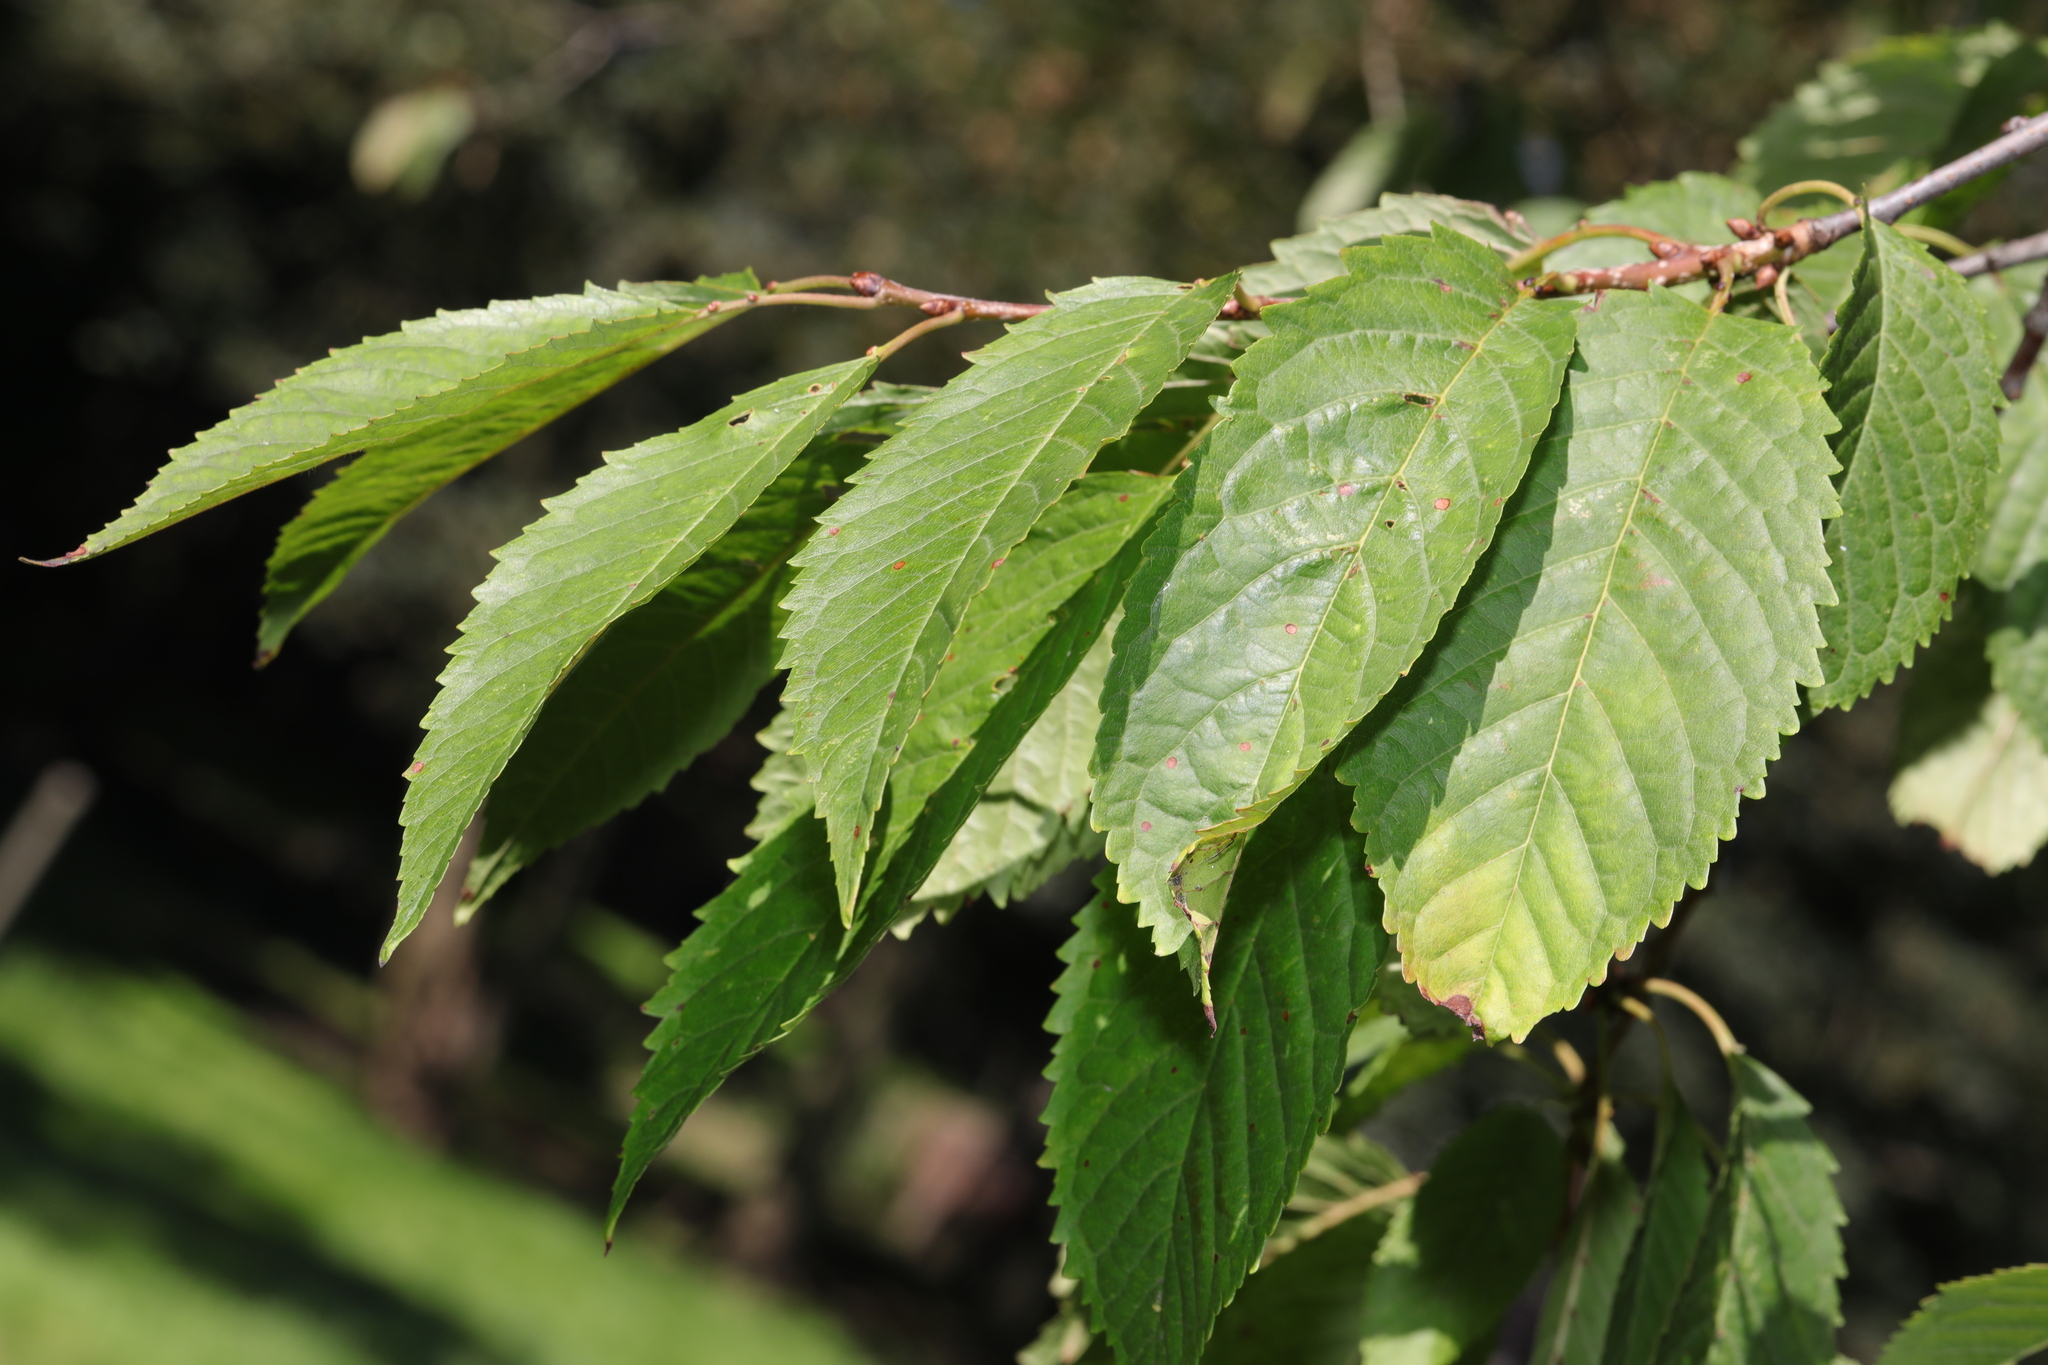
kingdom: Plantae
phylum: Tracheophyta
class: Magnoliopsida
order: Rosales
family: Rosaceae
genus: Prunus
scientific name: Prunus avium
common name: Sweet cherry
